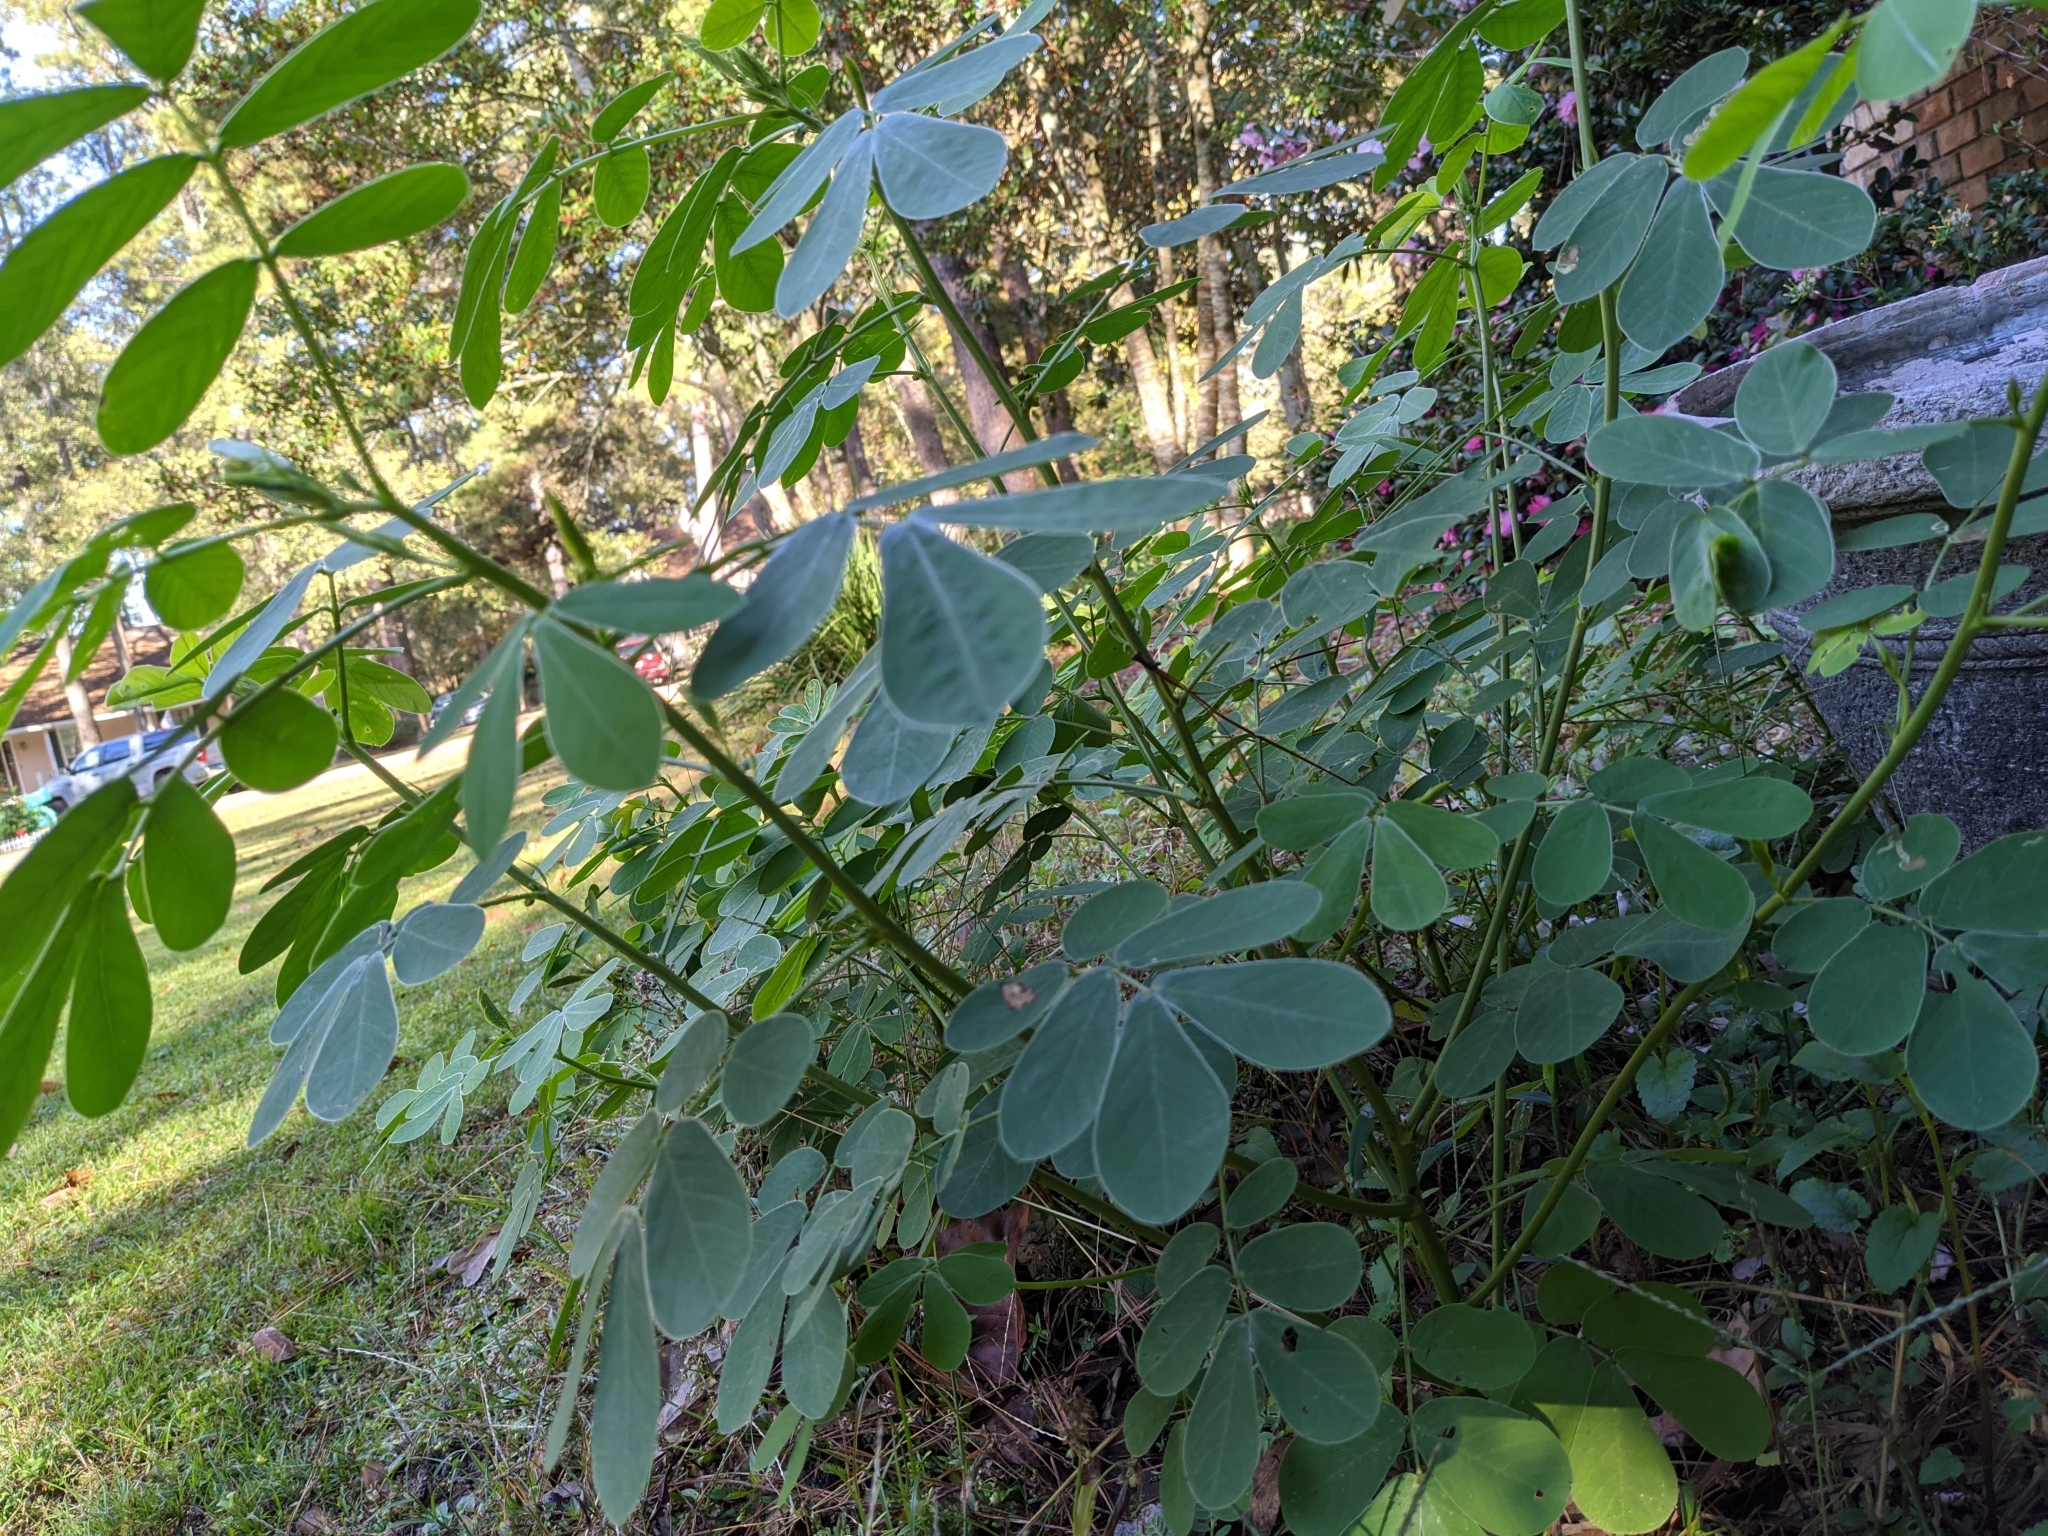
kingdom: Plantae
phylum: Tracheophyta
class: Magnoliopsida
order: Fabales
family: Fabaceae
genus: Senna
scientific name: Senna obtusifolia
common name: Java-bean
